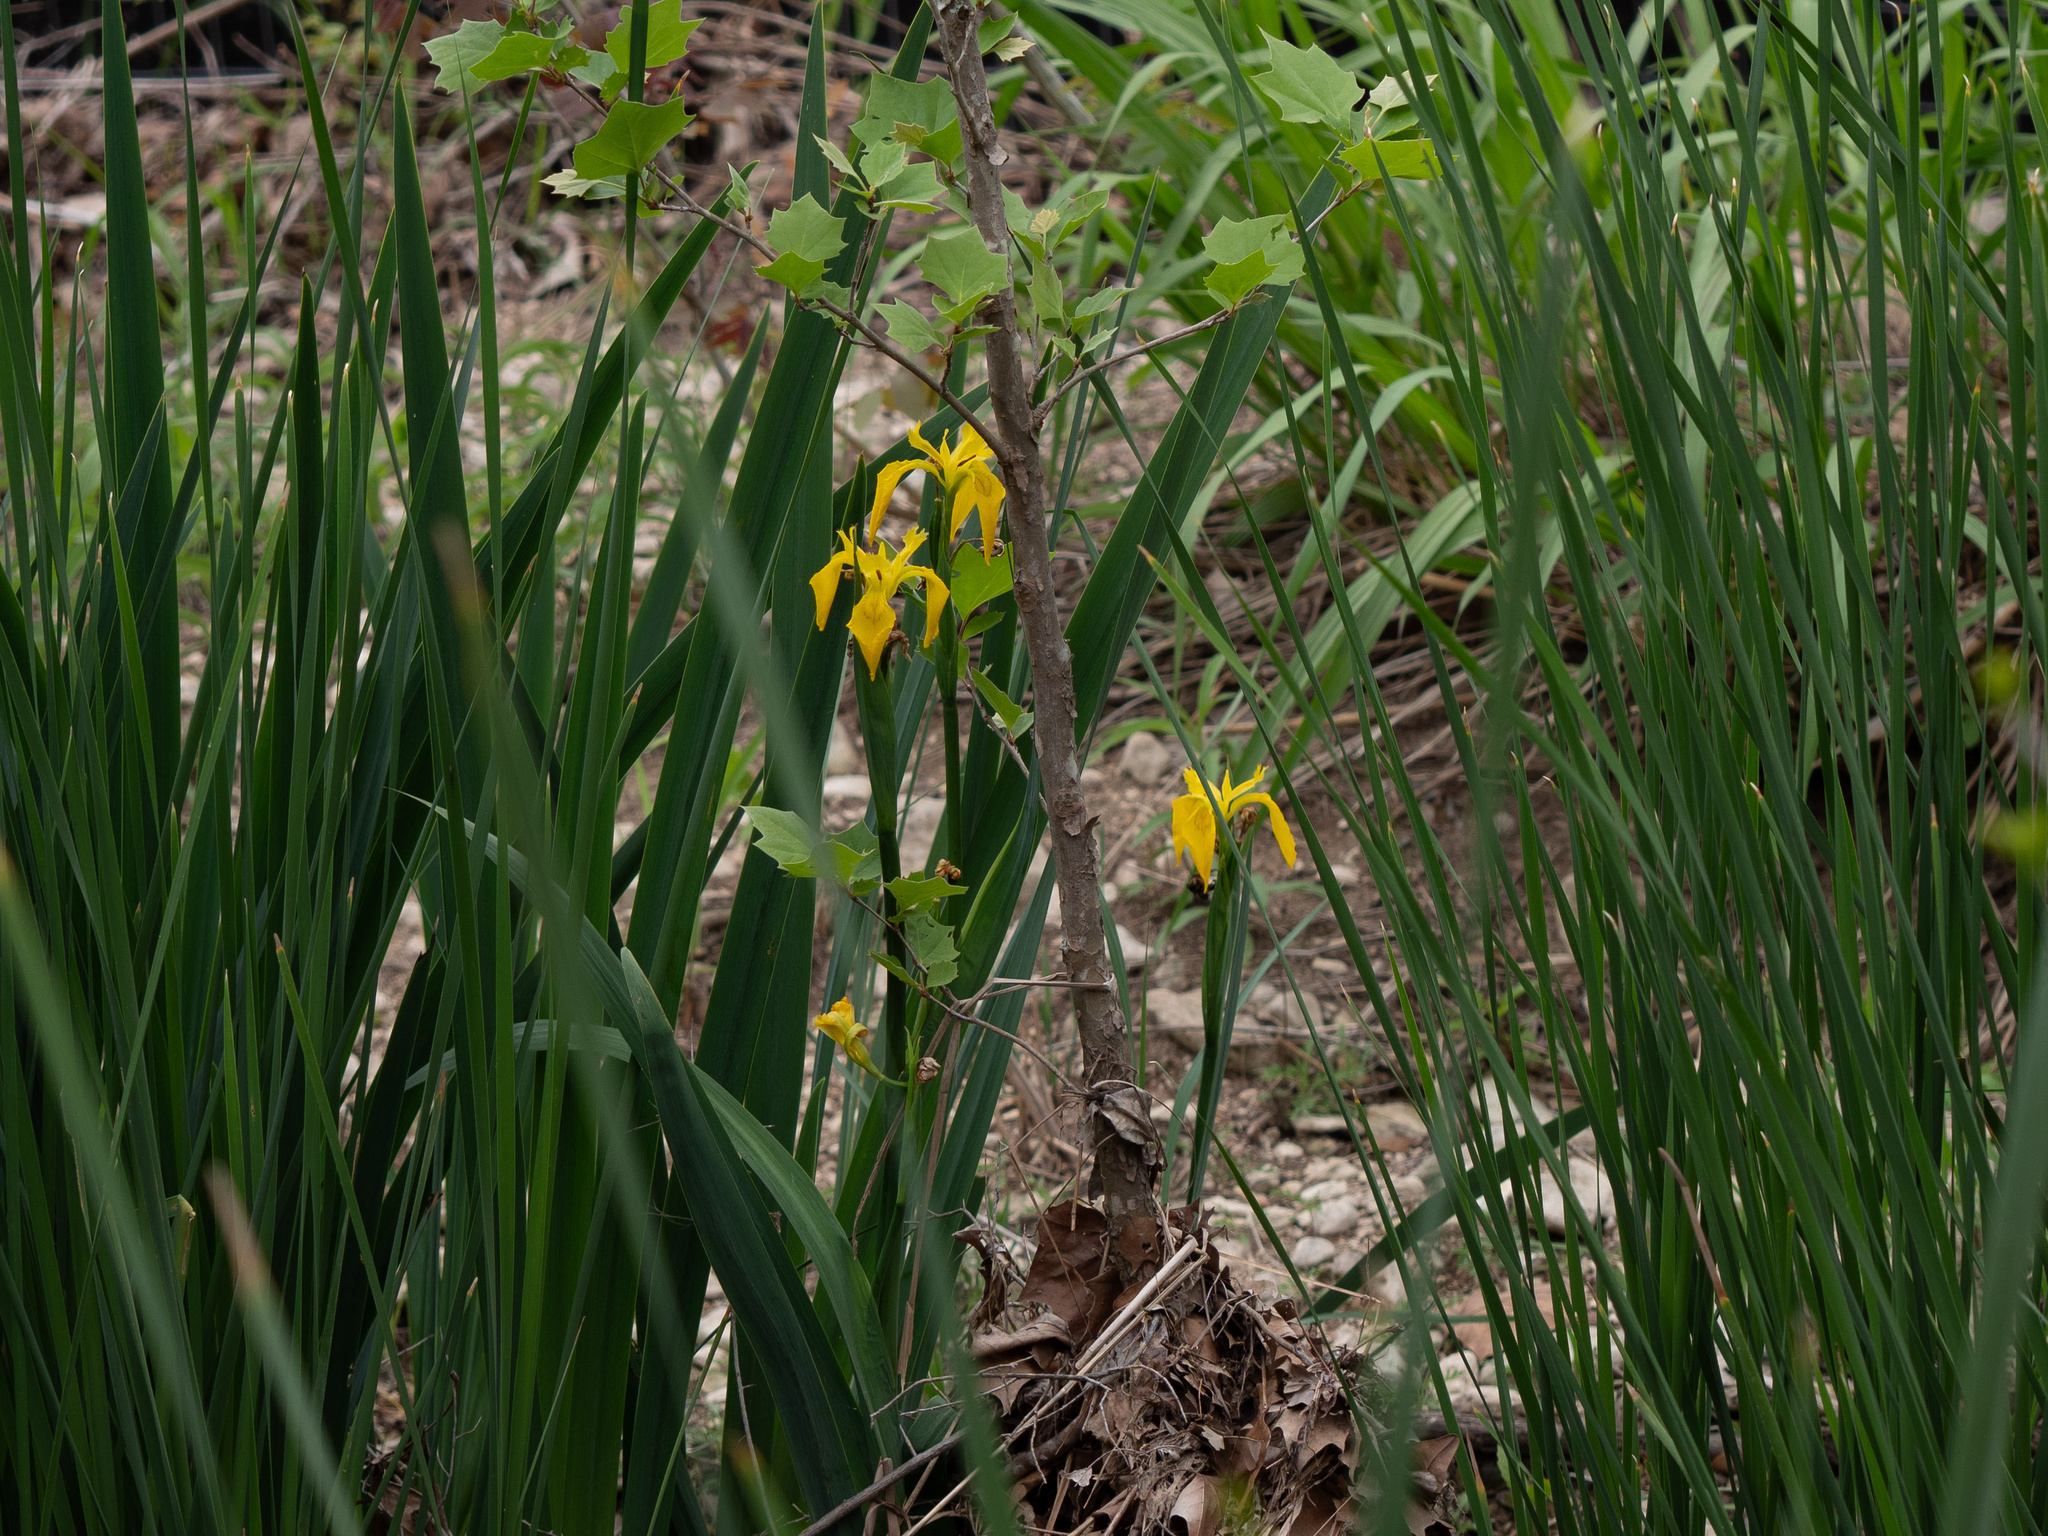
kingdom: Plantae
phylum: Tracheophyta
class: Liliopsida
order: Asparagales
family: Iridaceae
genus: Iris
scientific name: Iris pseudacorus
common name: Yellow flag
